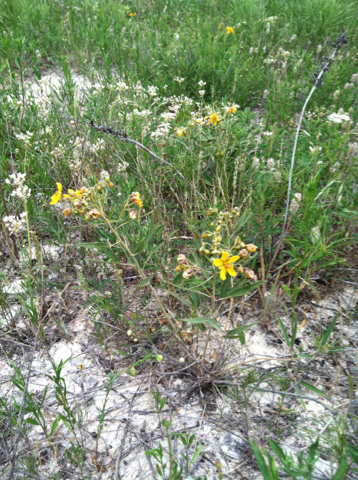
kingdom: Plantae
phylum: Tracheophyta
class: Magnoliopsida
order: Fabales
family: Fabaceae
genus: Senna
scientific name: Senna roemeriana
